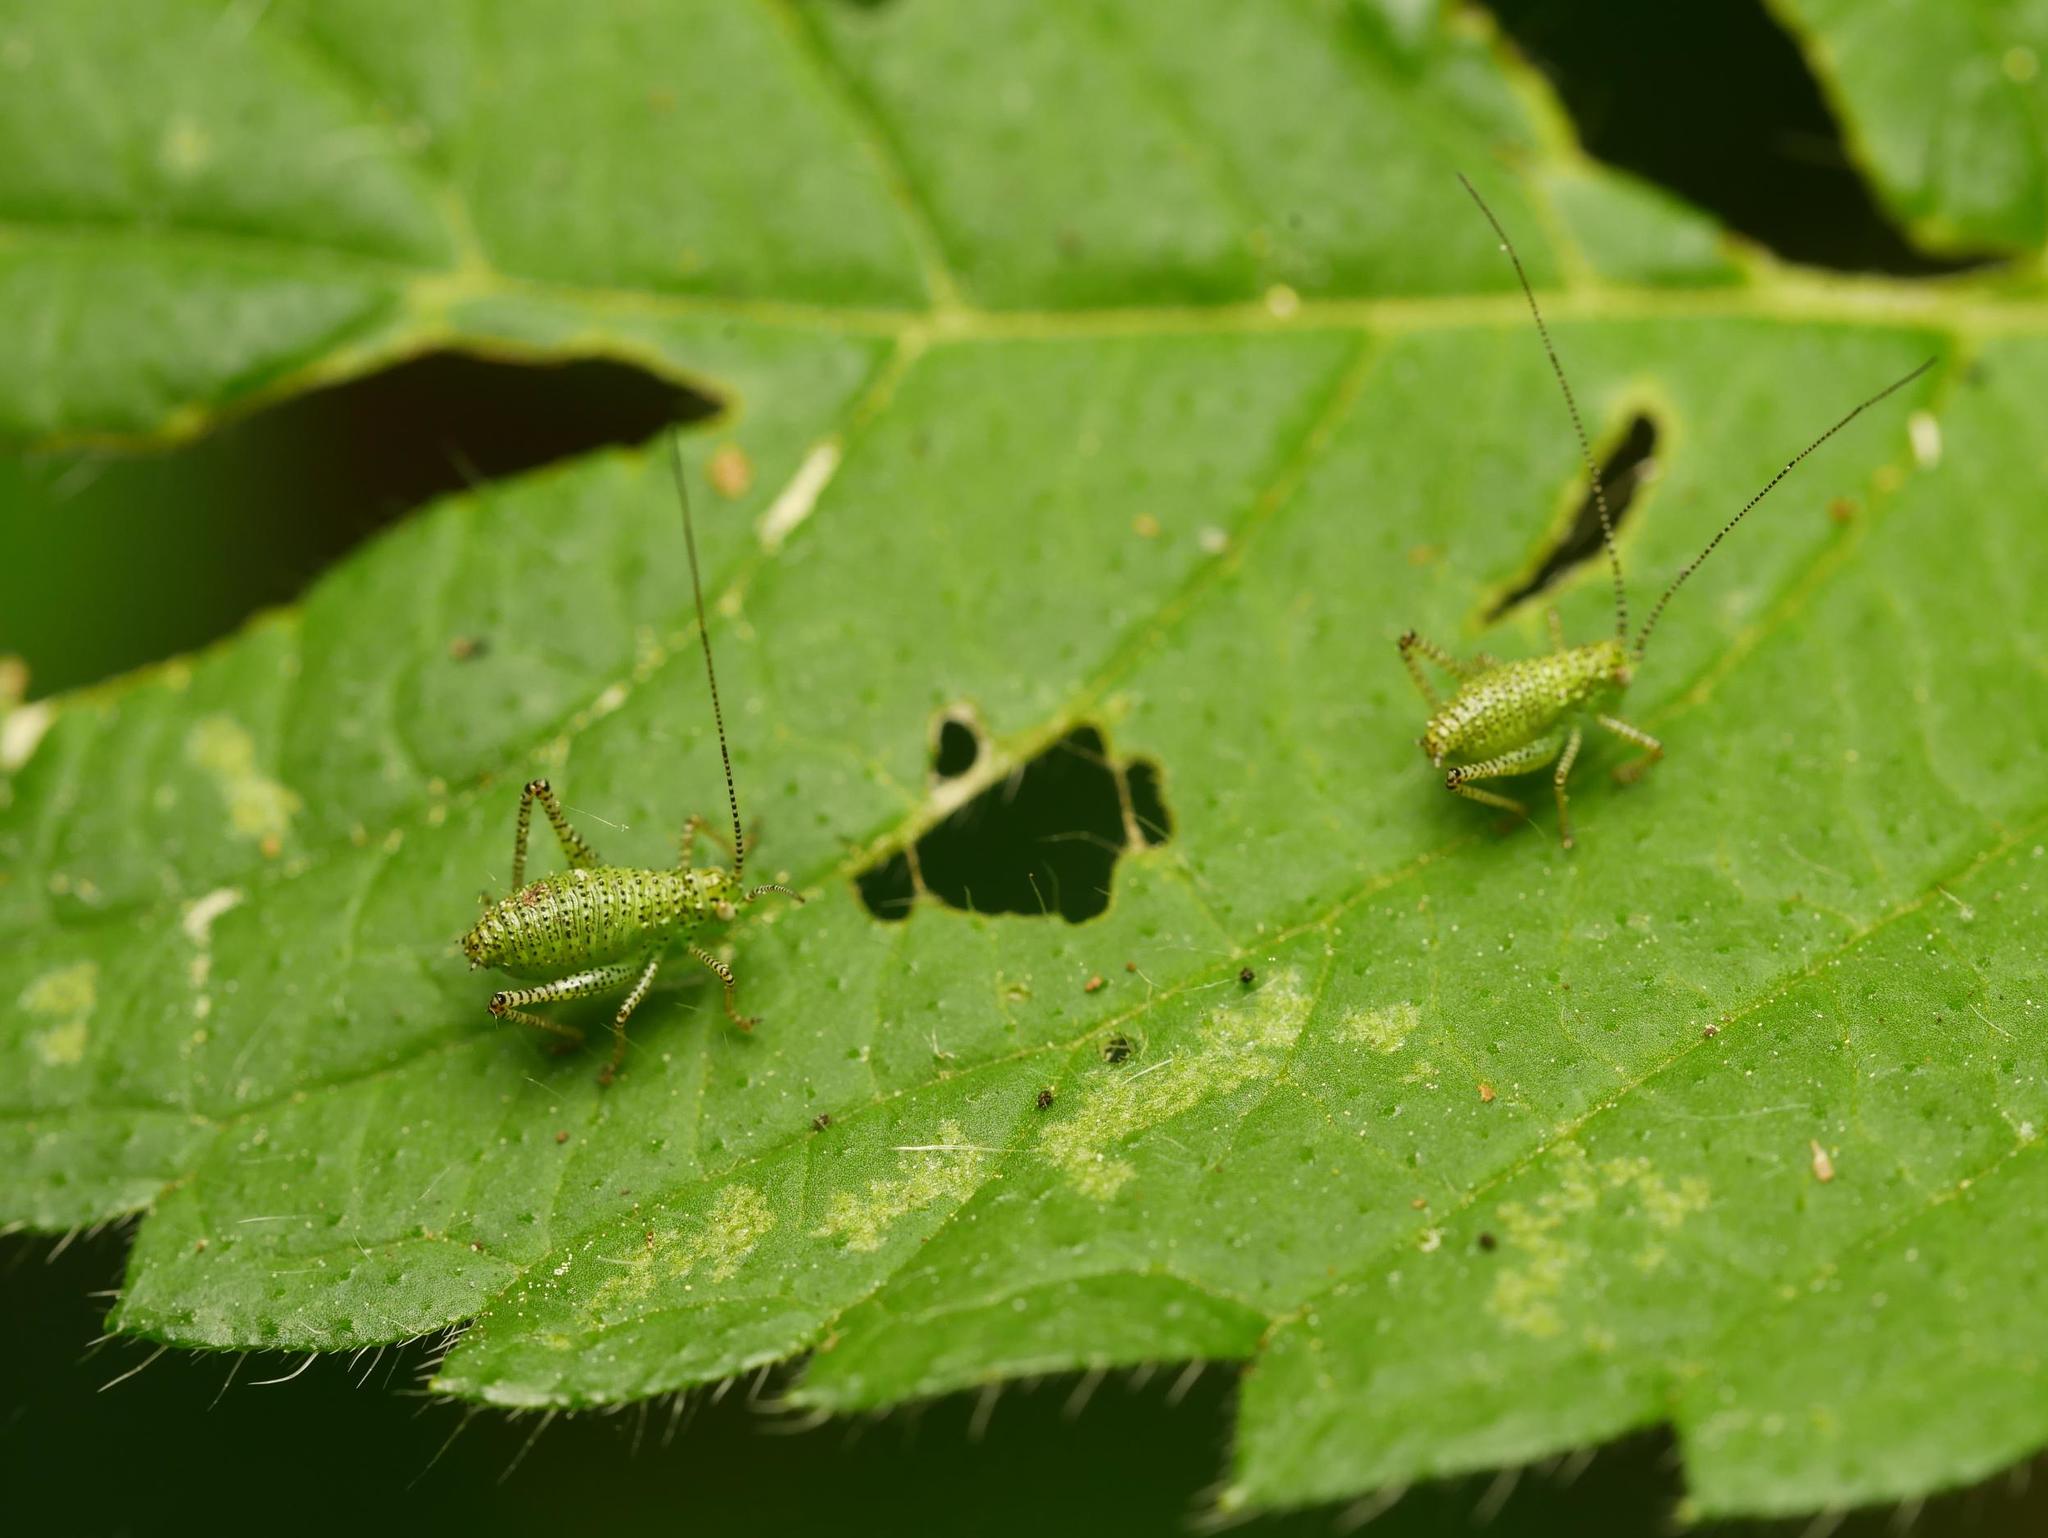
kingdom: Animalia
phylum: Arthropoda
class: Insecta
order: Orthoptera
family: Tettigoniidae
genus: Leptophyes
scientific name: Leptophyes punctatissima
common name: Speckled bush-cricket
